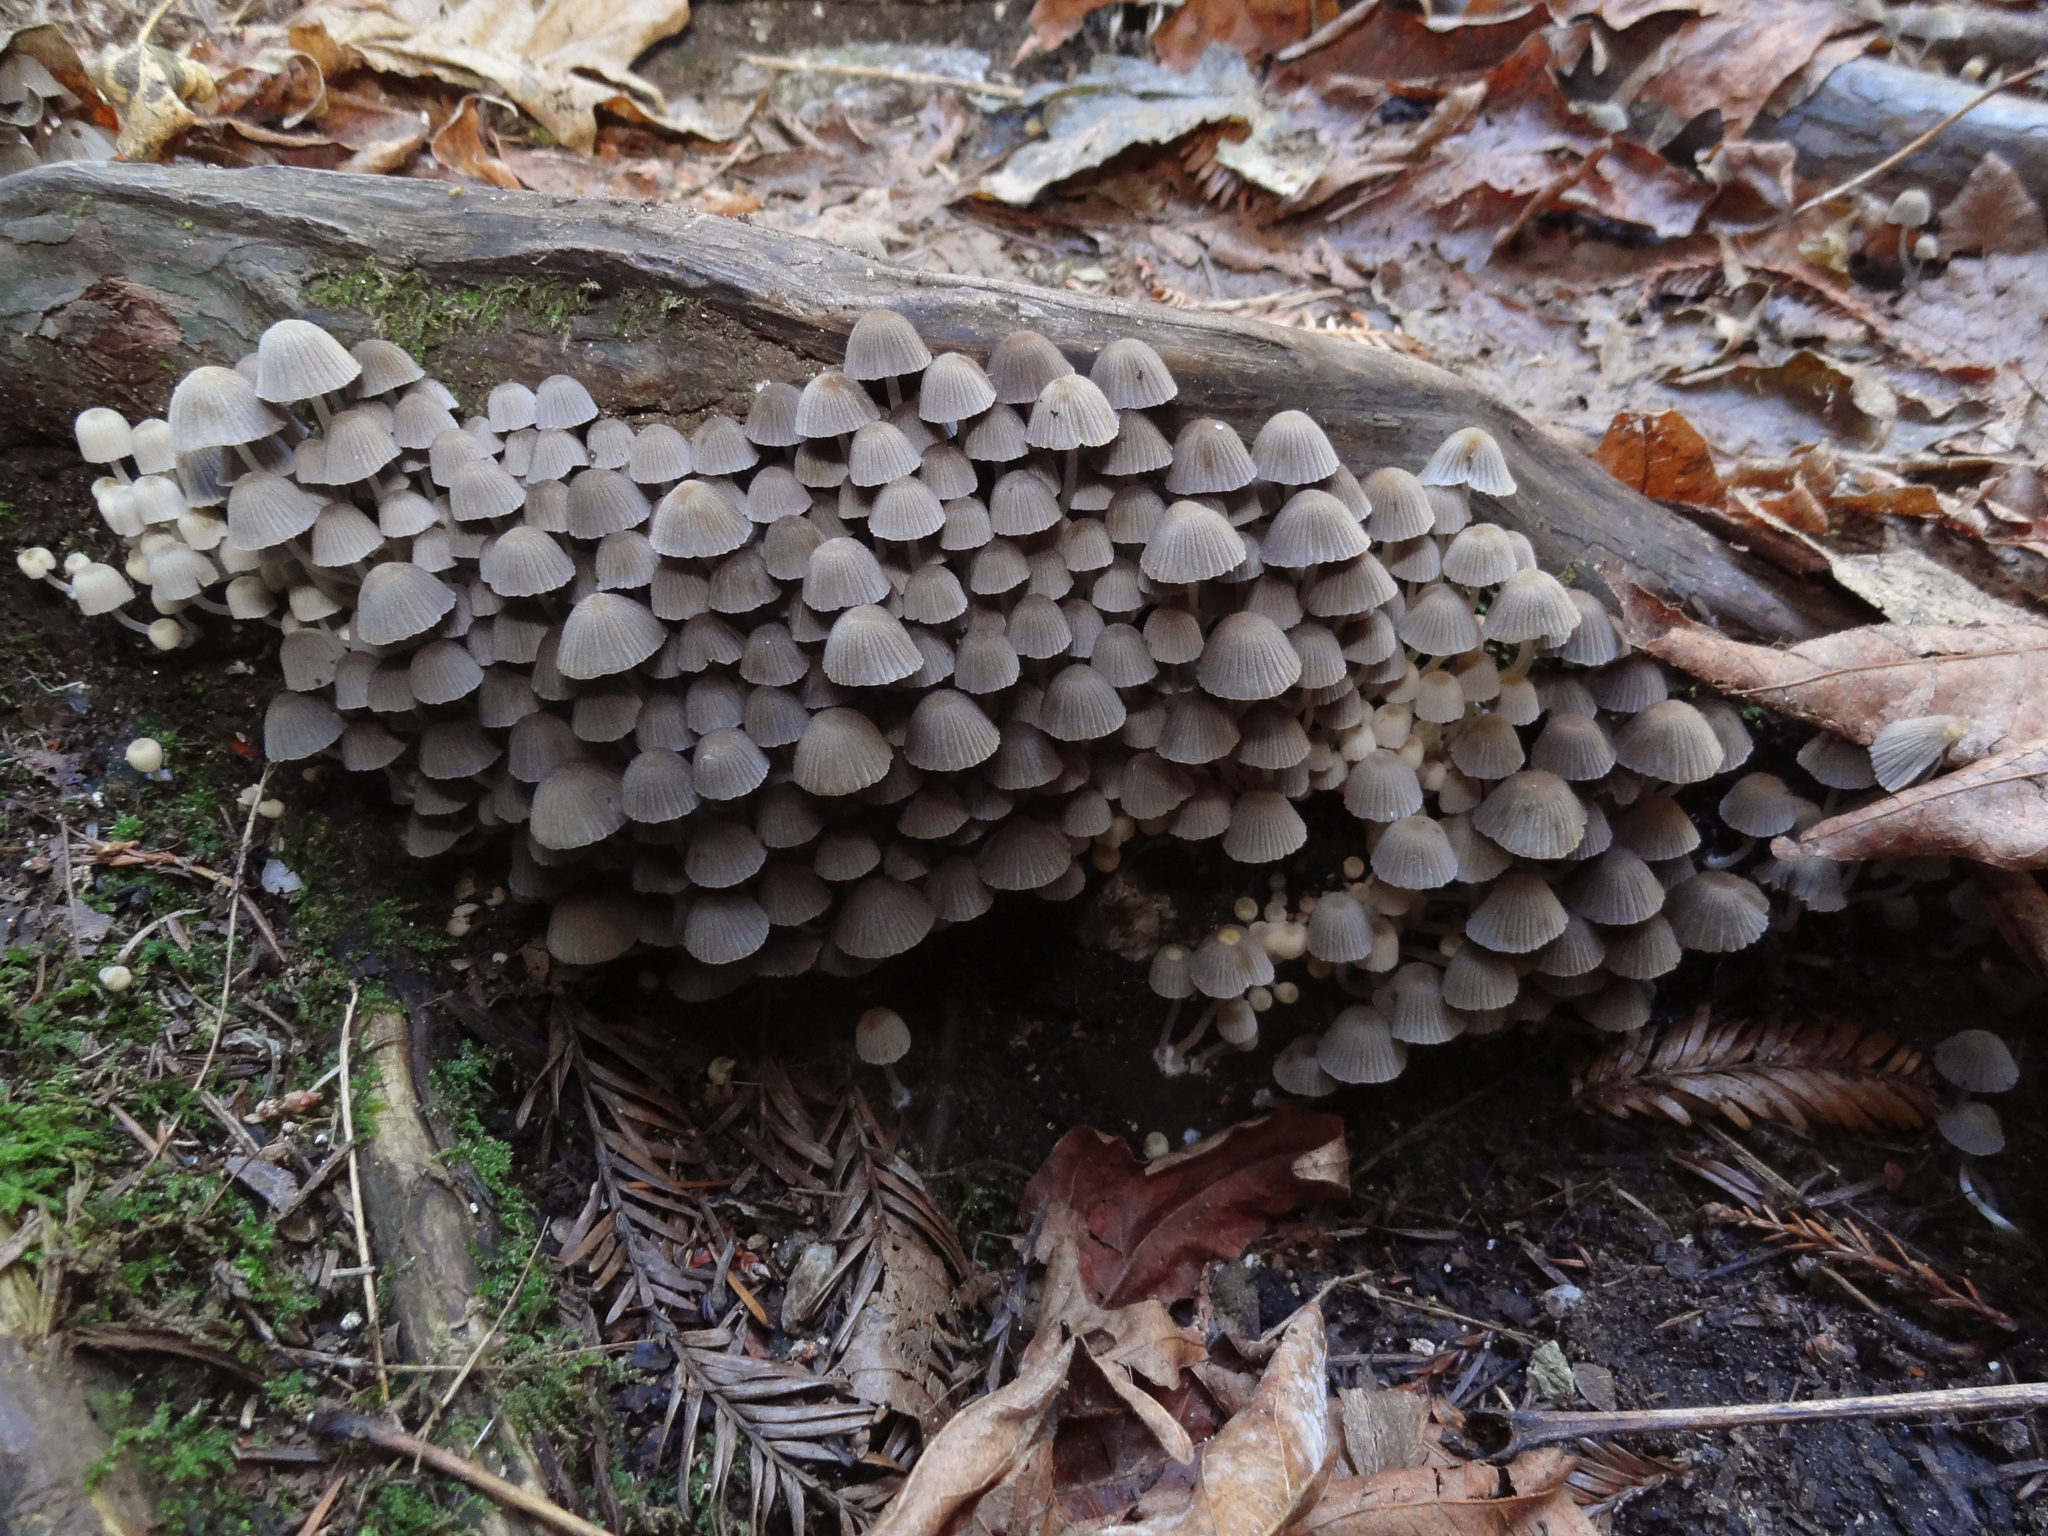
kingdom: Fungi
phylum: Basidiomycota
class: Agaricomycetes
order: Agaricales
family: Psathyrellaceae
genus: Coprinellus
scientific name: Coprinellus disseminatus
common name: Fairies' bonnets
